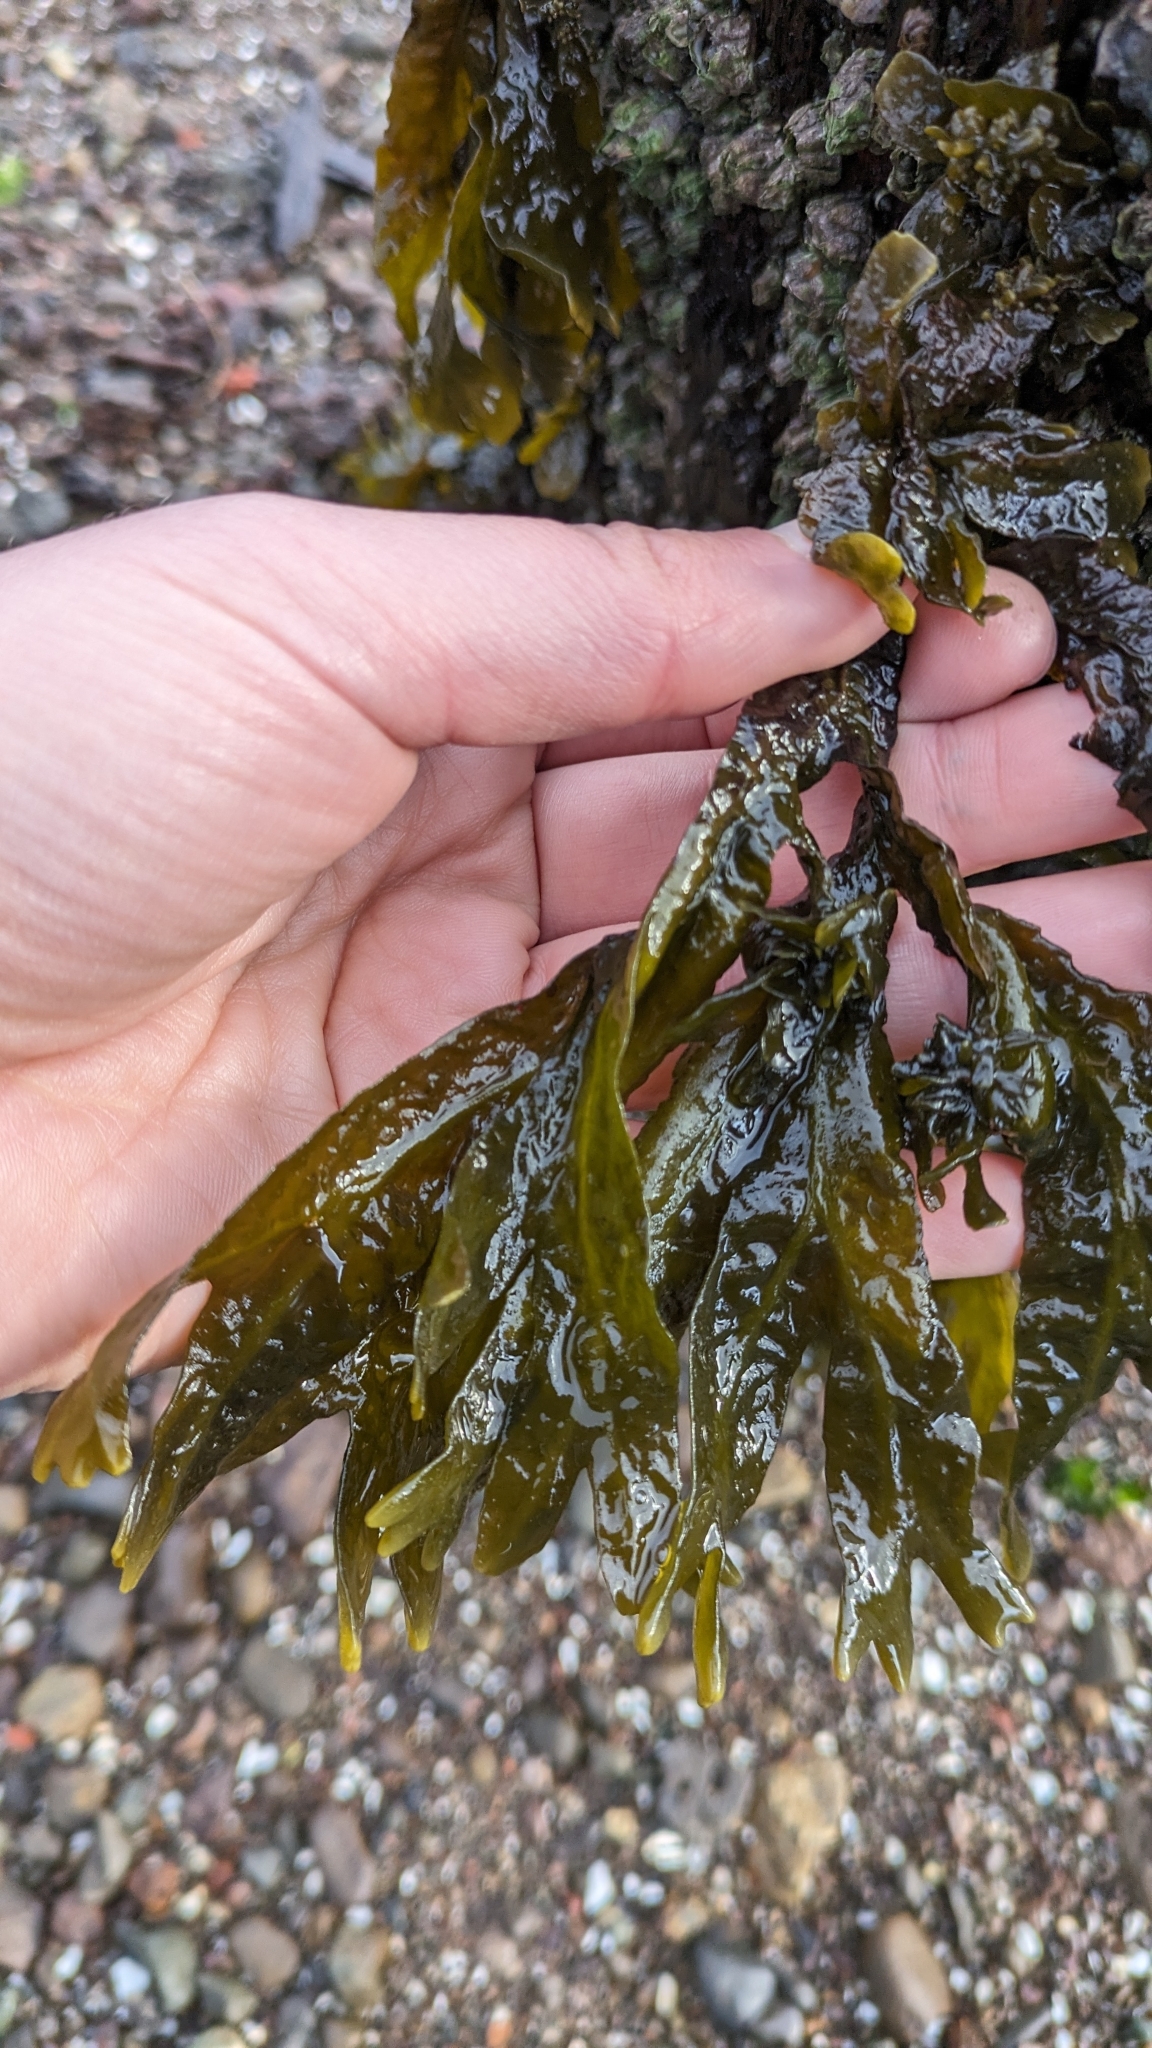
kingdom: Chromista
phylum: Ochrophyta
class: Phaeophyceae
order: Fucales
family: Fucaceae
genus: Fucus
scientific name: Fucus distichus
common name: Rockweed
